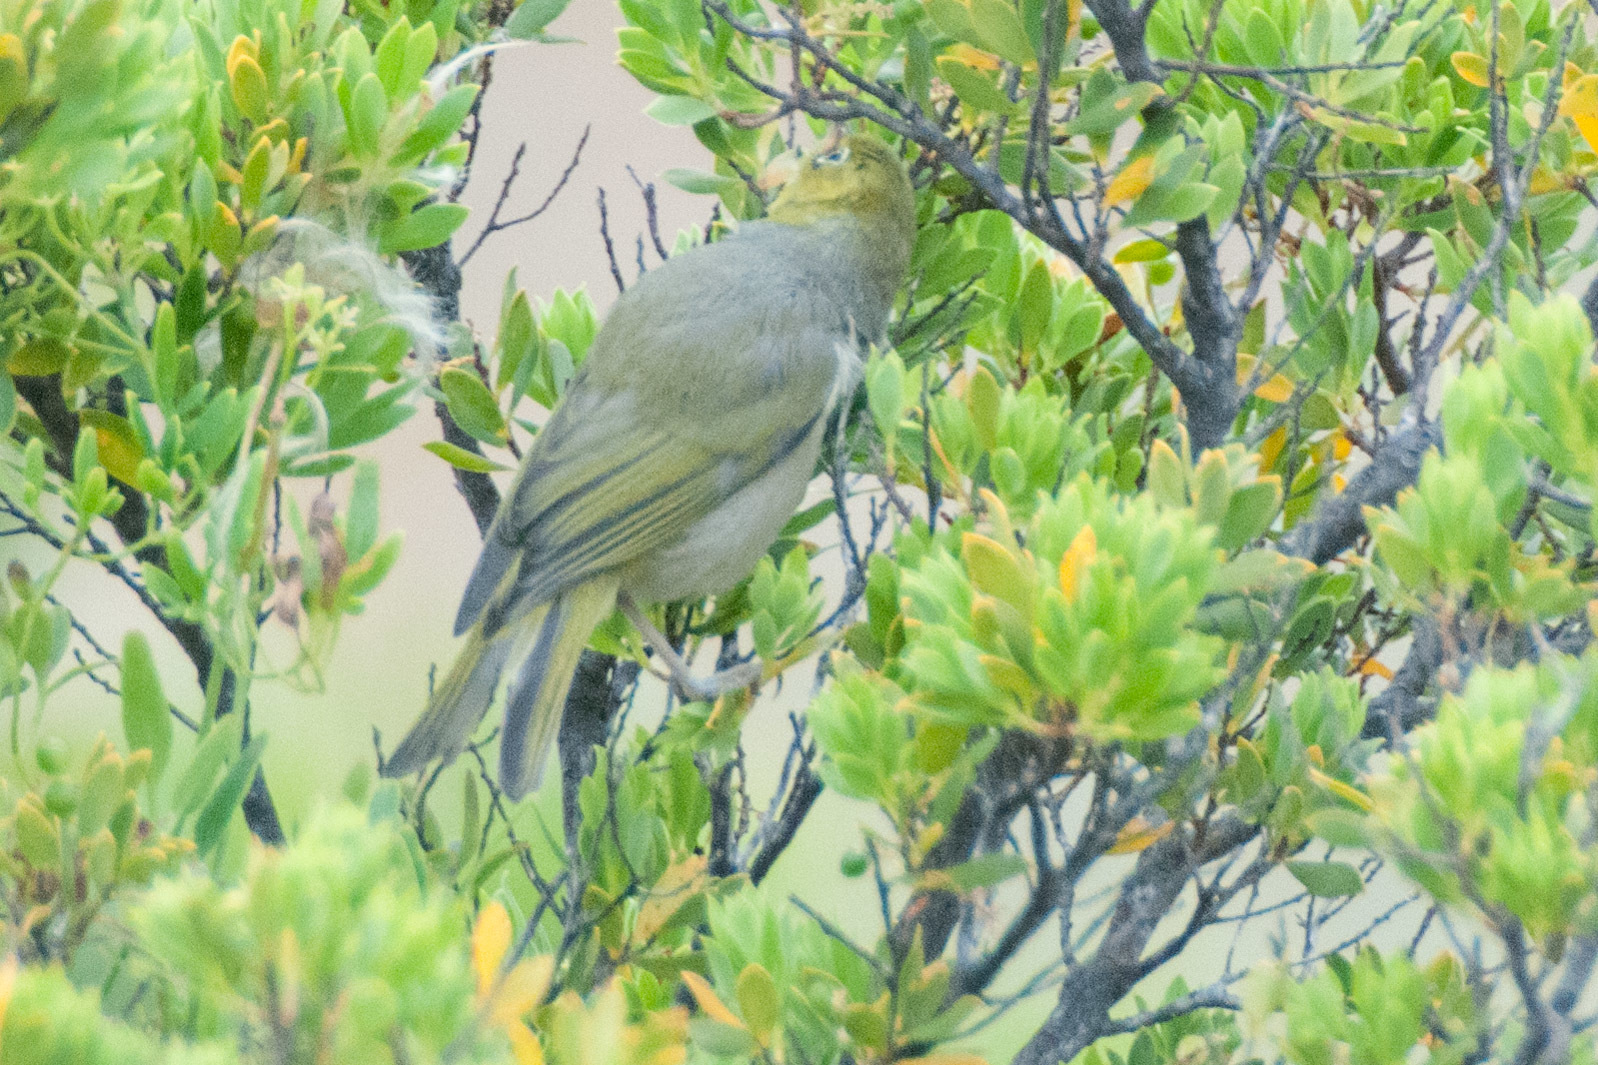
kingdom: Animalia
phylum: Chordata
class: Aves
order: Passeriformes
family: Zosteropidae
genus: Zosterops
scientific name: Zosterops lateralis
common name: Silvereye
